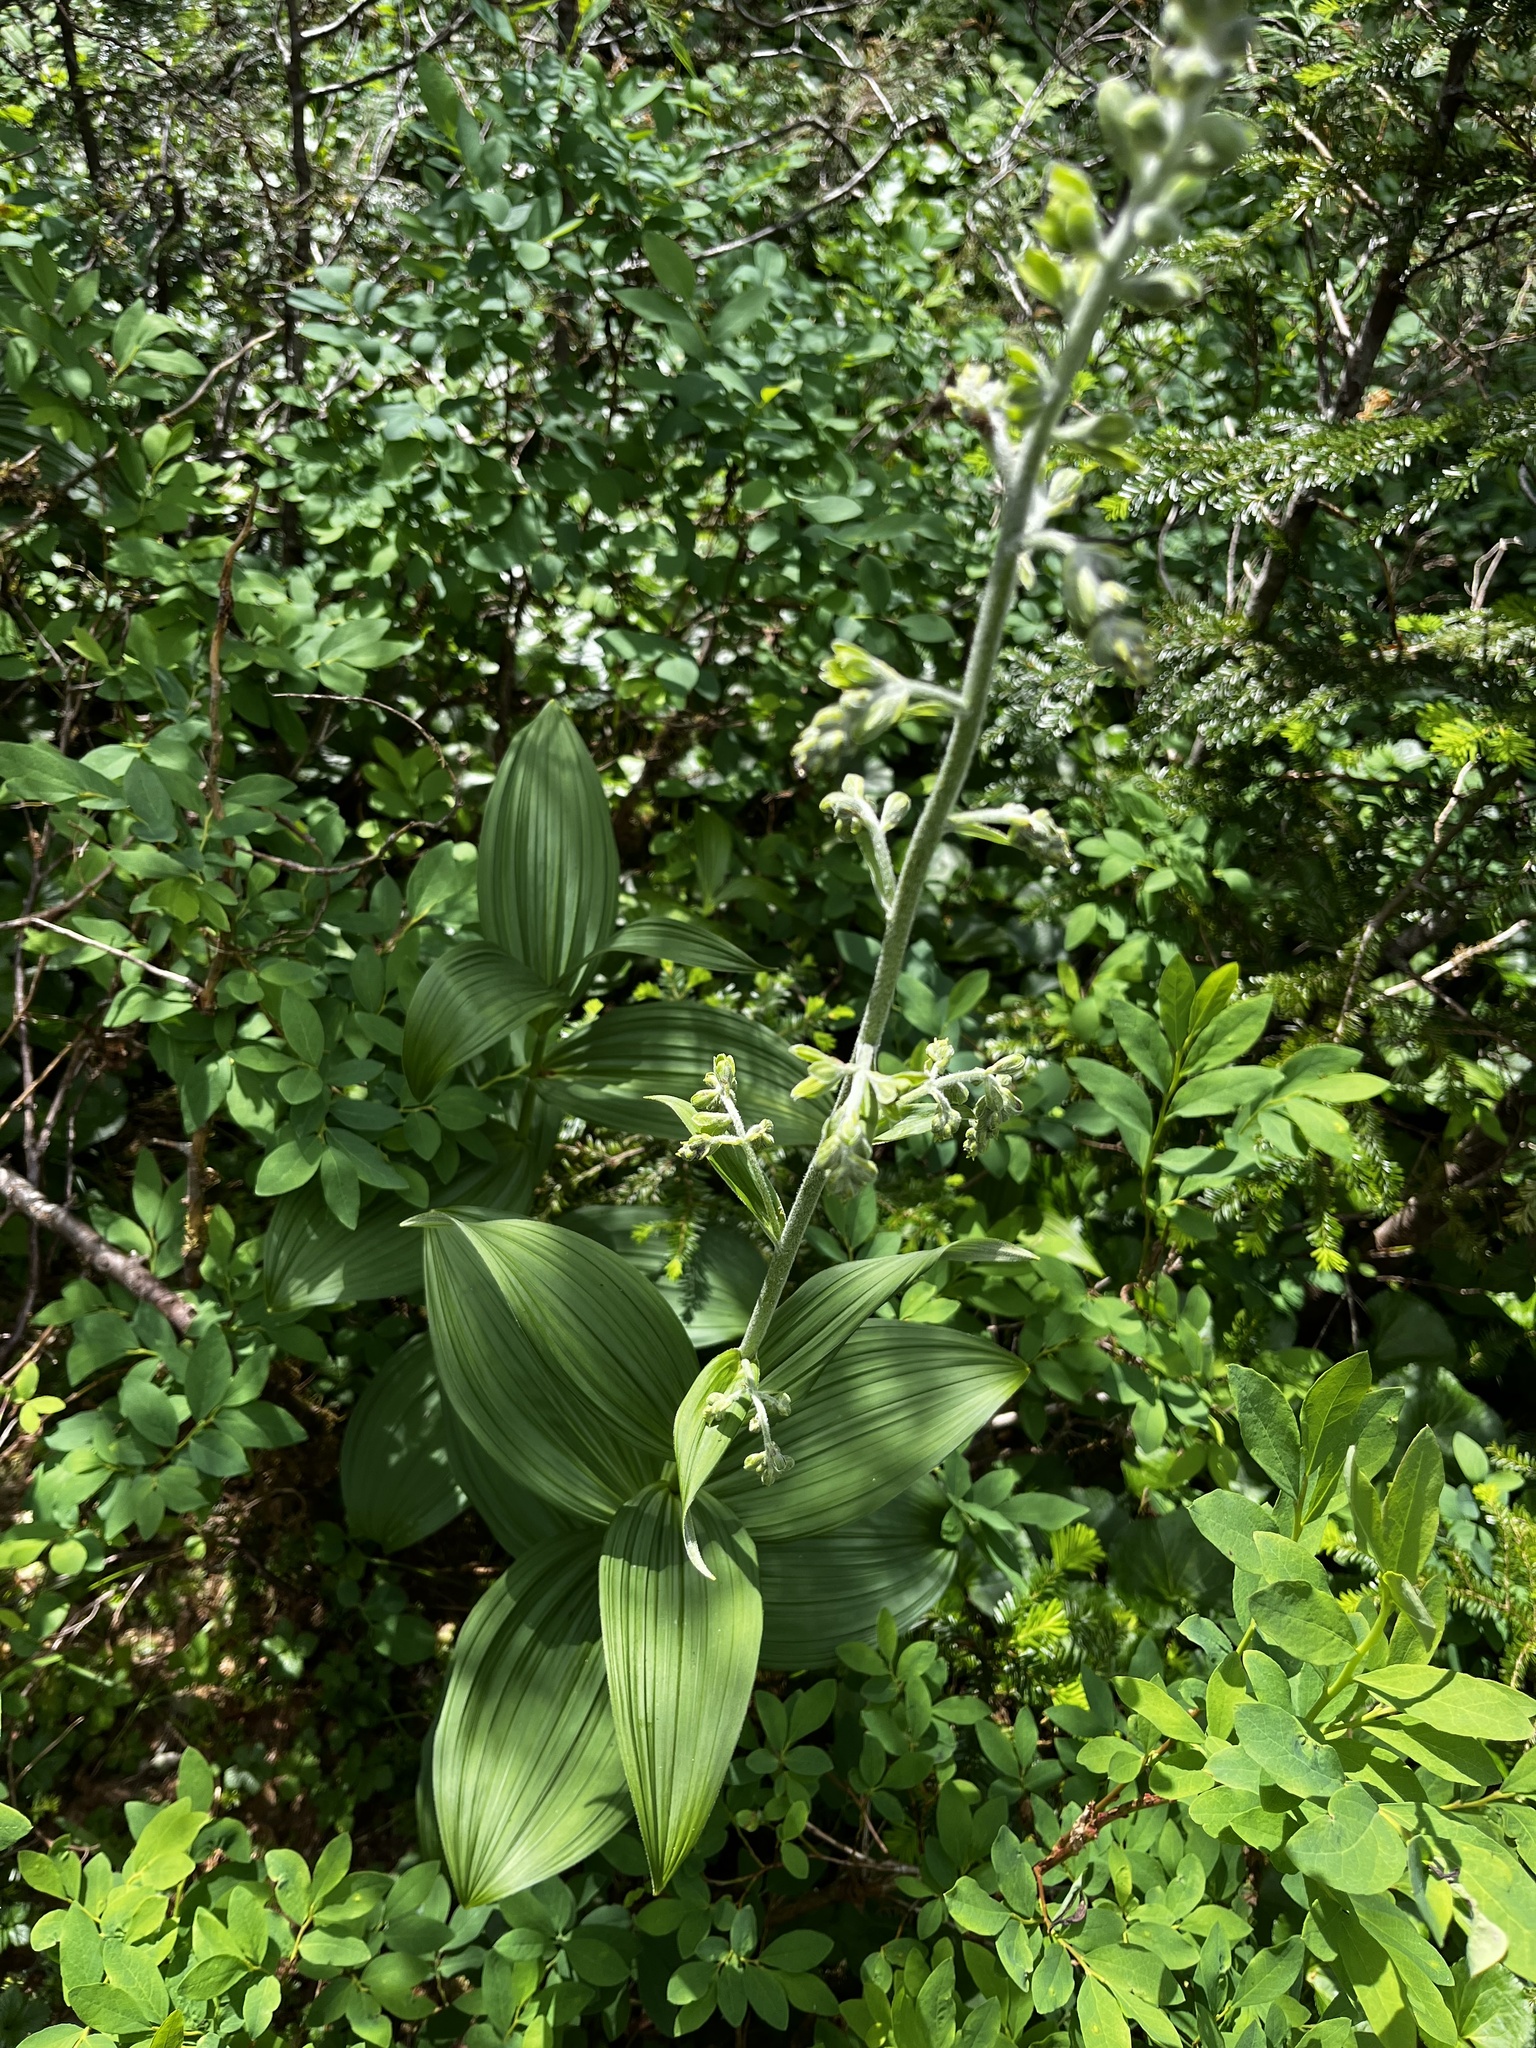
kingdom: Plantae
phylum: Tracheophyta
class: Liliopsida
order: Liliales
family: Melanthiaceae
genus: Veratrum
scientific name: Veratrum viride
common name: American false hellebore
